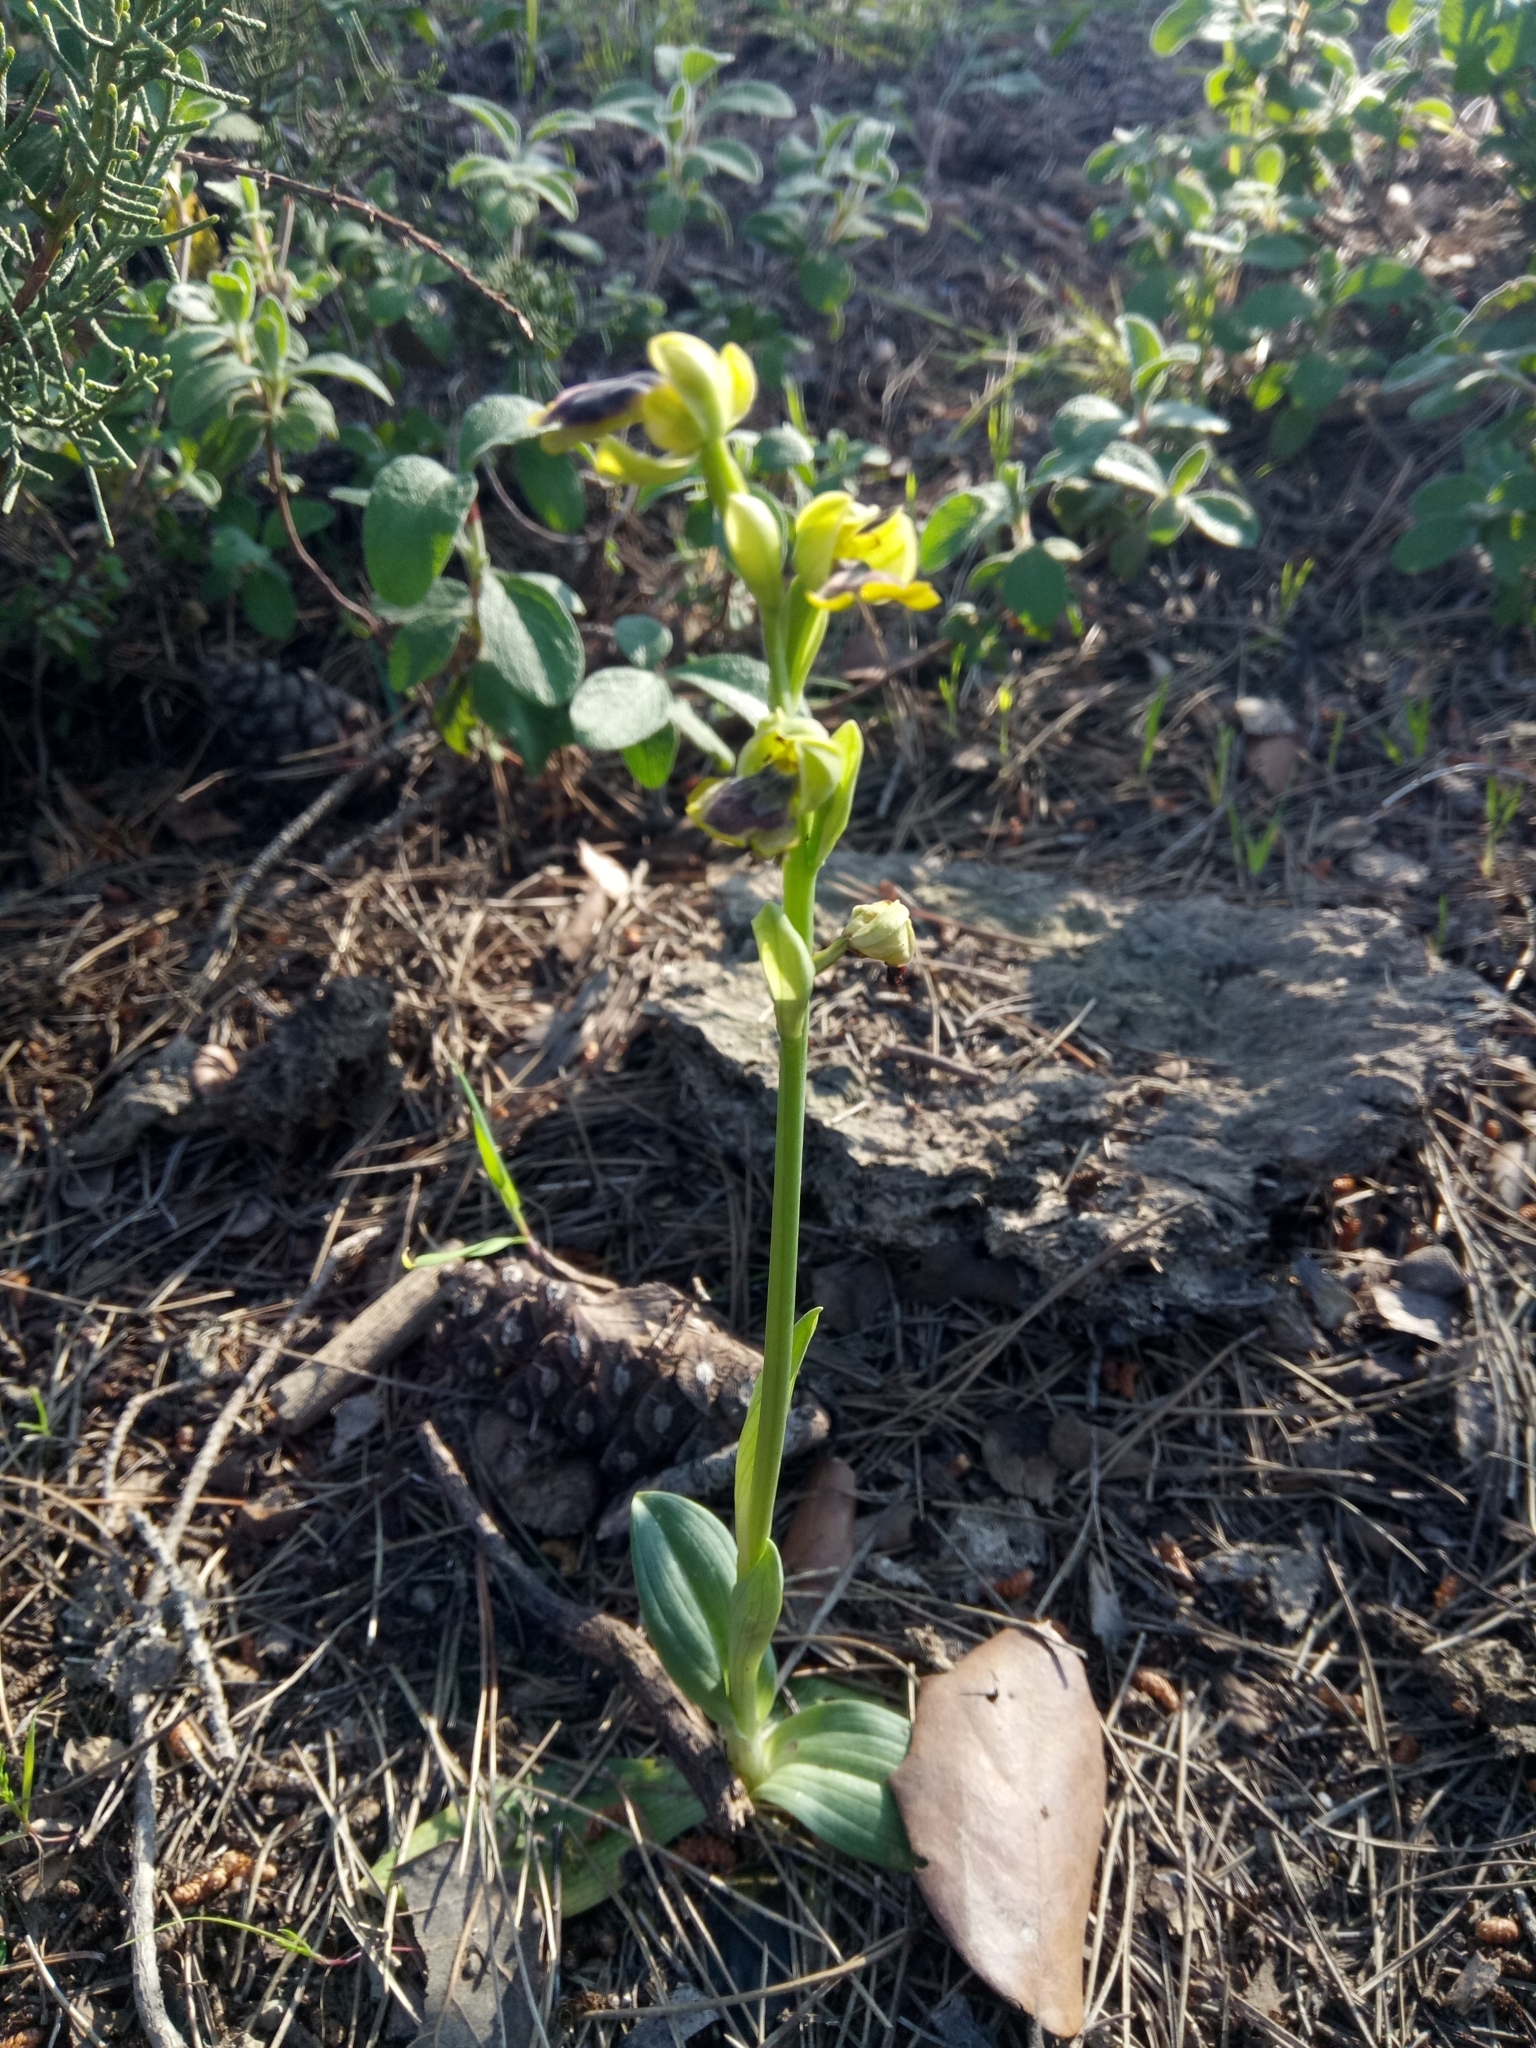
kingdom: Plantae
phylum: Tracheophyta
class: Liliopsida
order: Asparagales
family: Orchidaceae
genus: Ophrys
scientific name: Ophrys lutea
